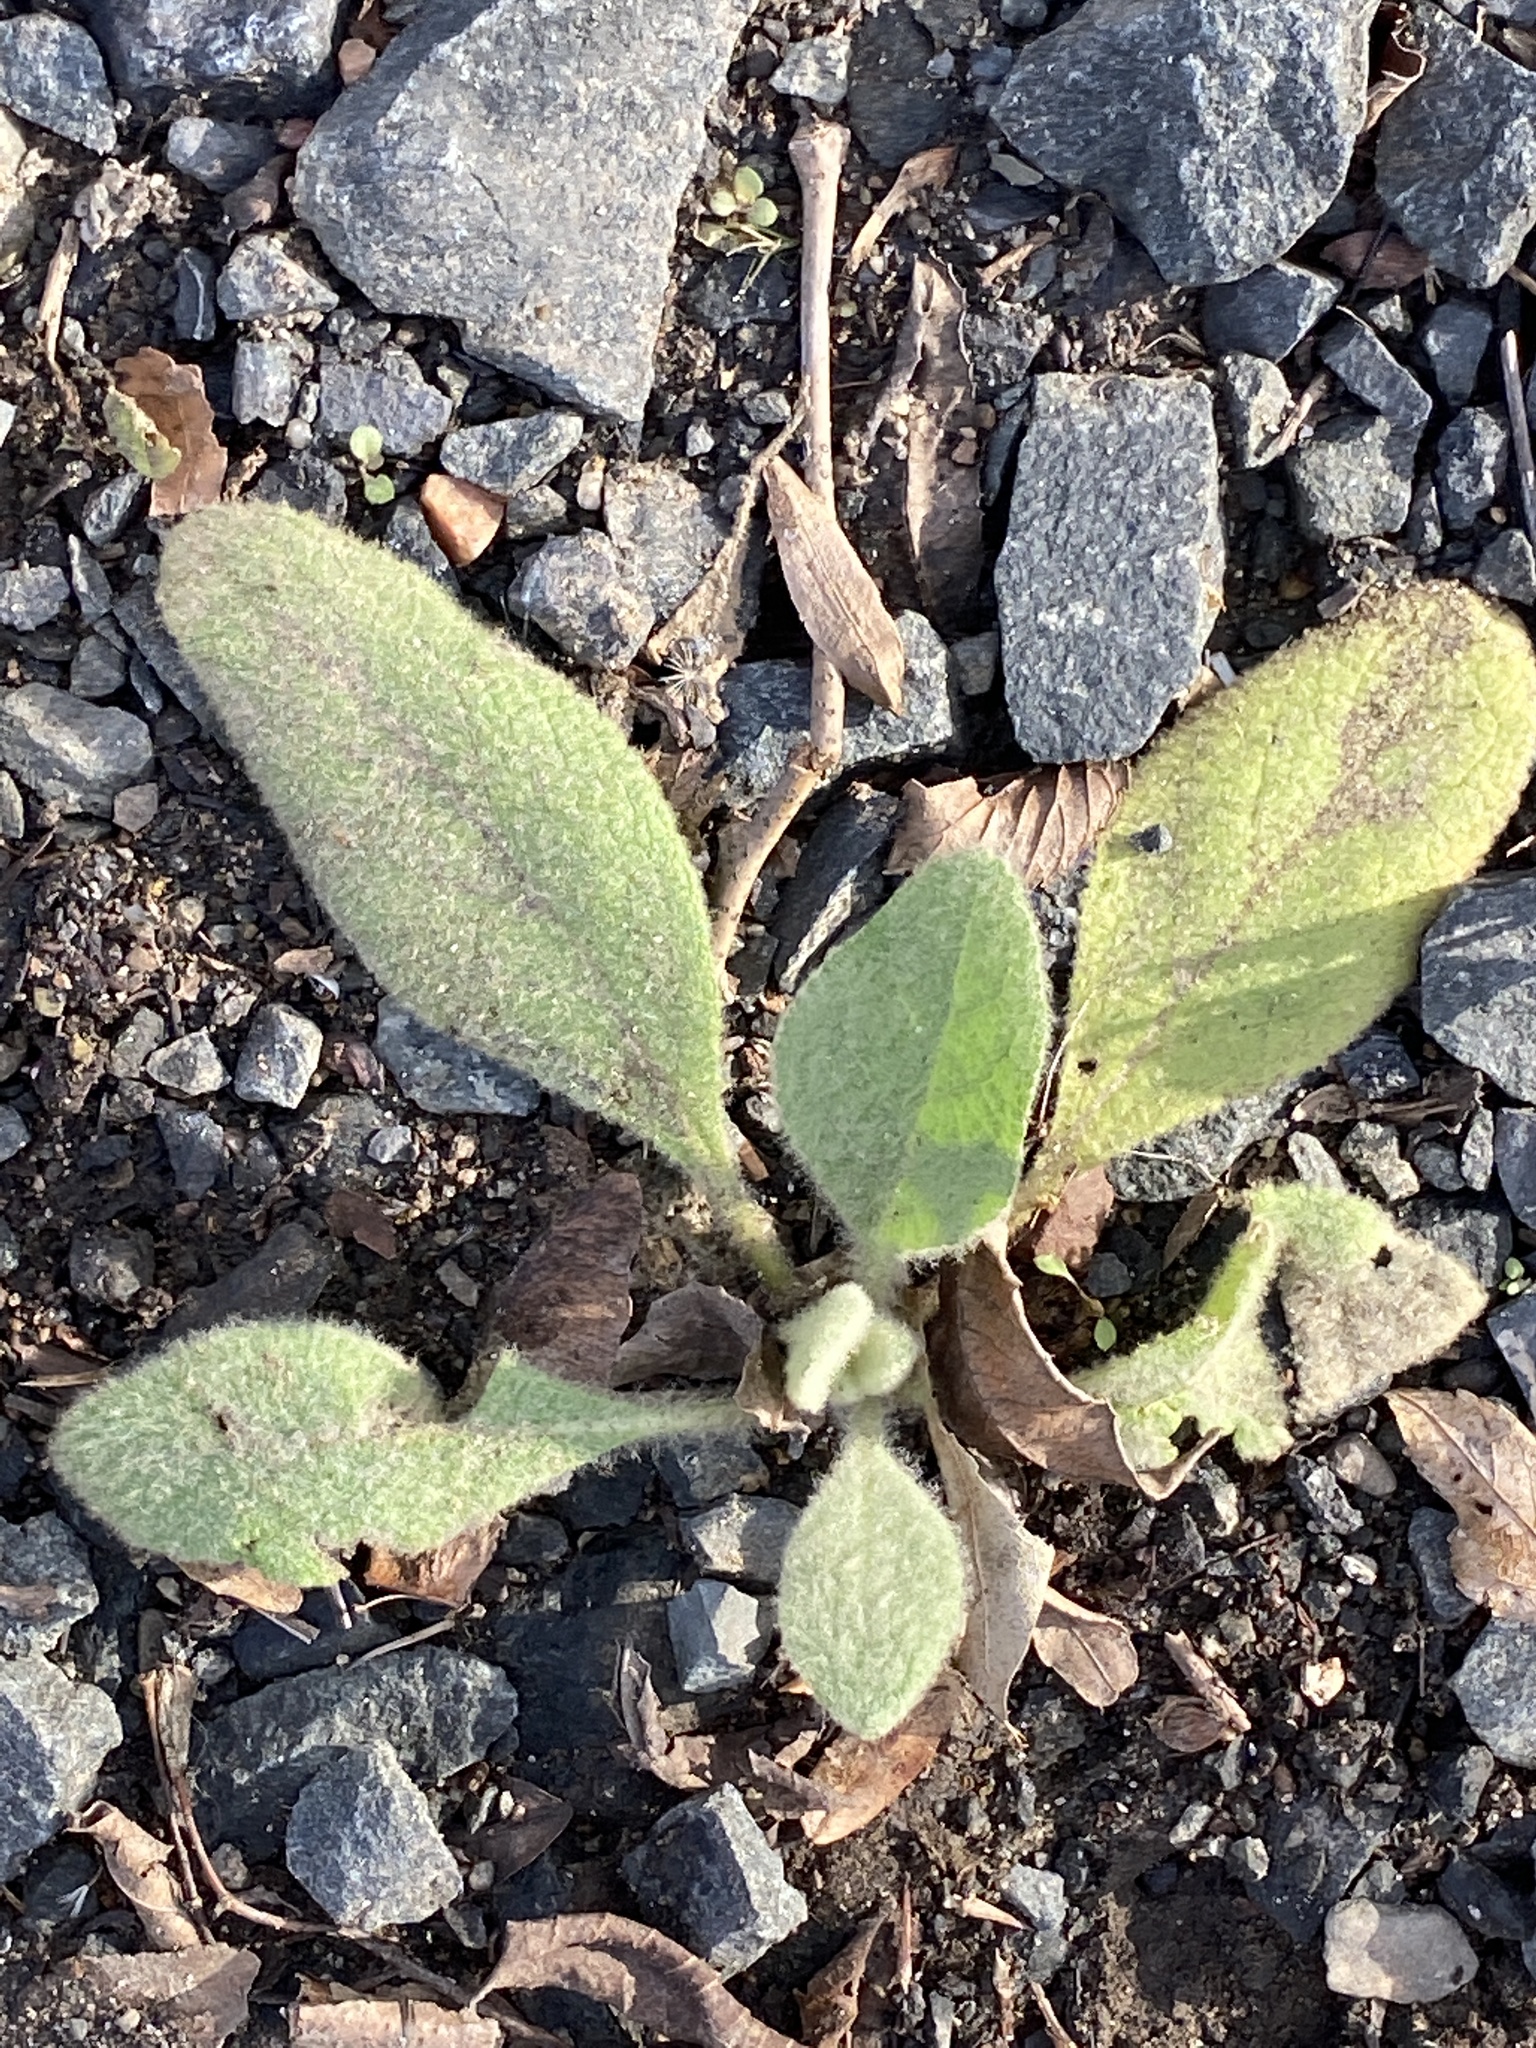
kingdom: Plantae
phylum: Tracheophyta
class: Magnoliopsida
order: Lamiales
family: Scrophulariaceae
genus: Verbascum
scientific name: Verbascum thapsus
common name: Common mullein
